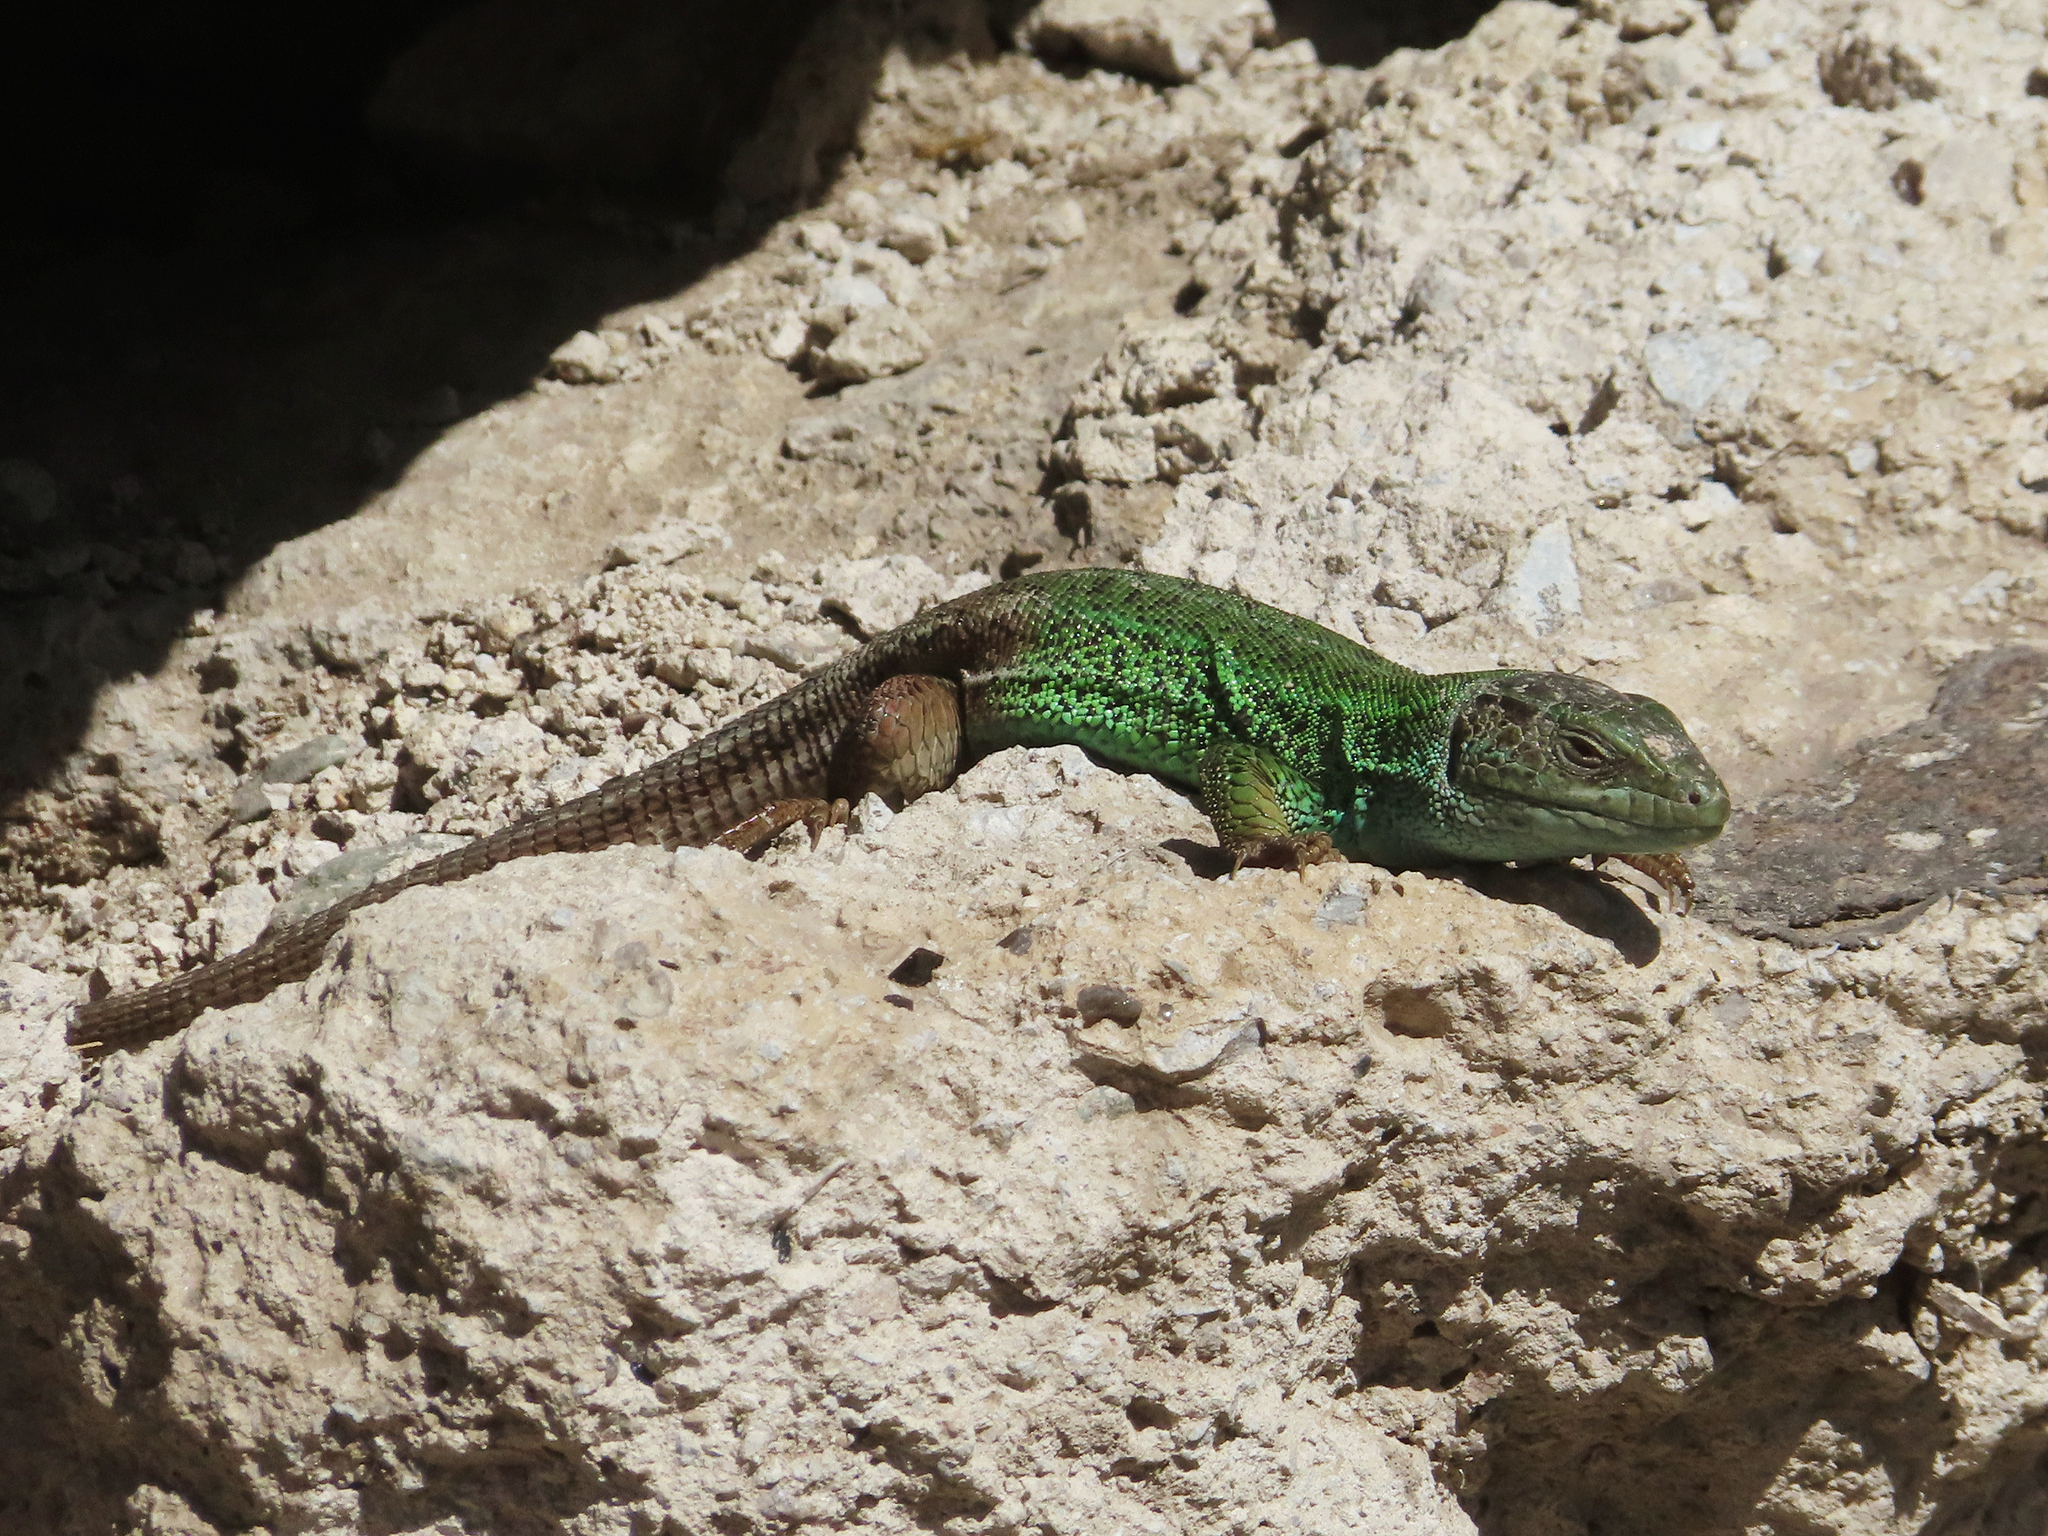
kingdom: Animalia
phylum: Chordata
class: Squamata
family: Lacertidae
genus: Lacerta
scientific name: Lacerta strigata
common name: Caspian green lizard
